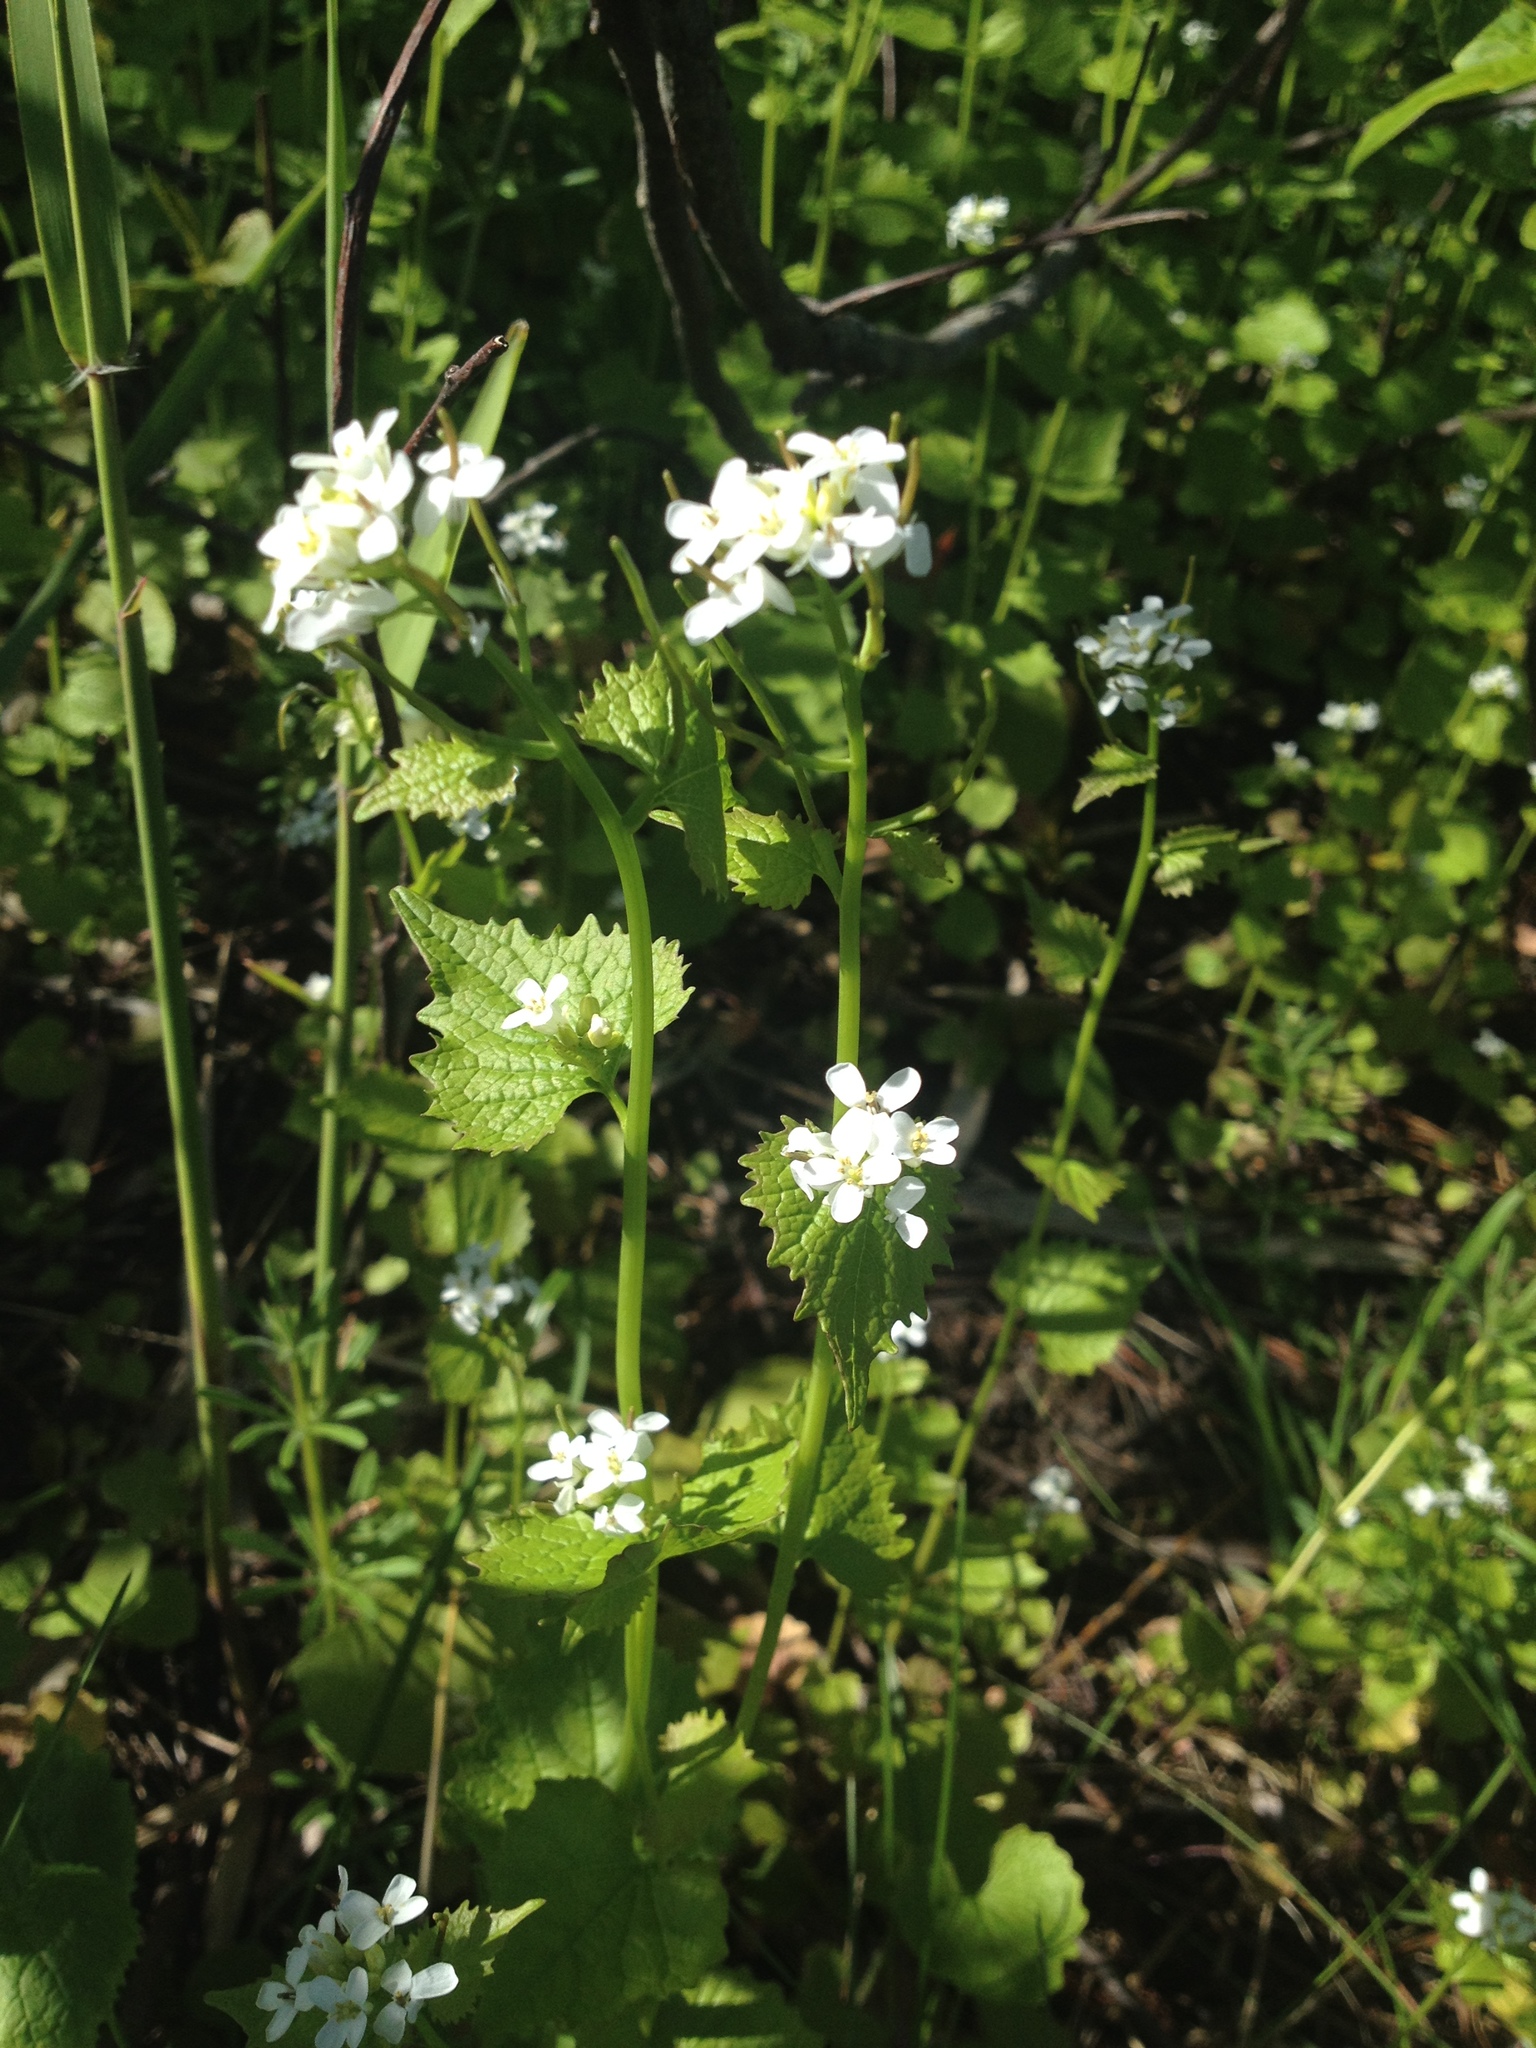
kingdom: Plantae
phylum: Tracheophyta
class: Magnoliopsida
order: Brassicales
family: Brassicaceae
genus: Alliaria
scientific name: Alliaria petiolata
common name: Garlic mustard
